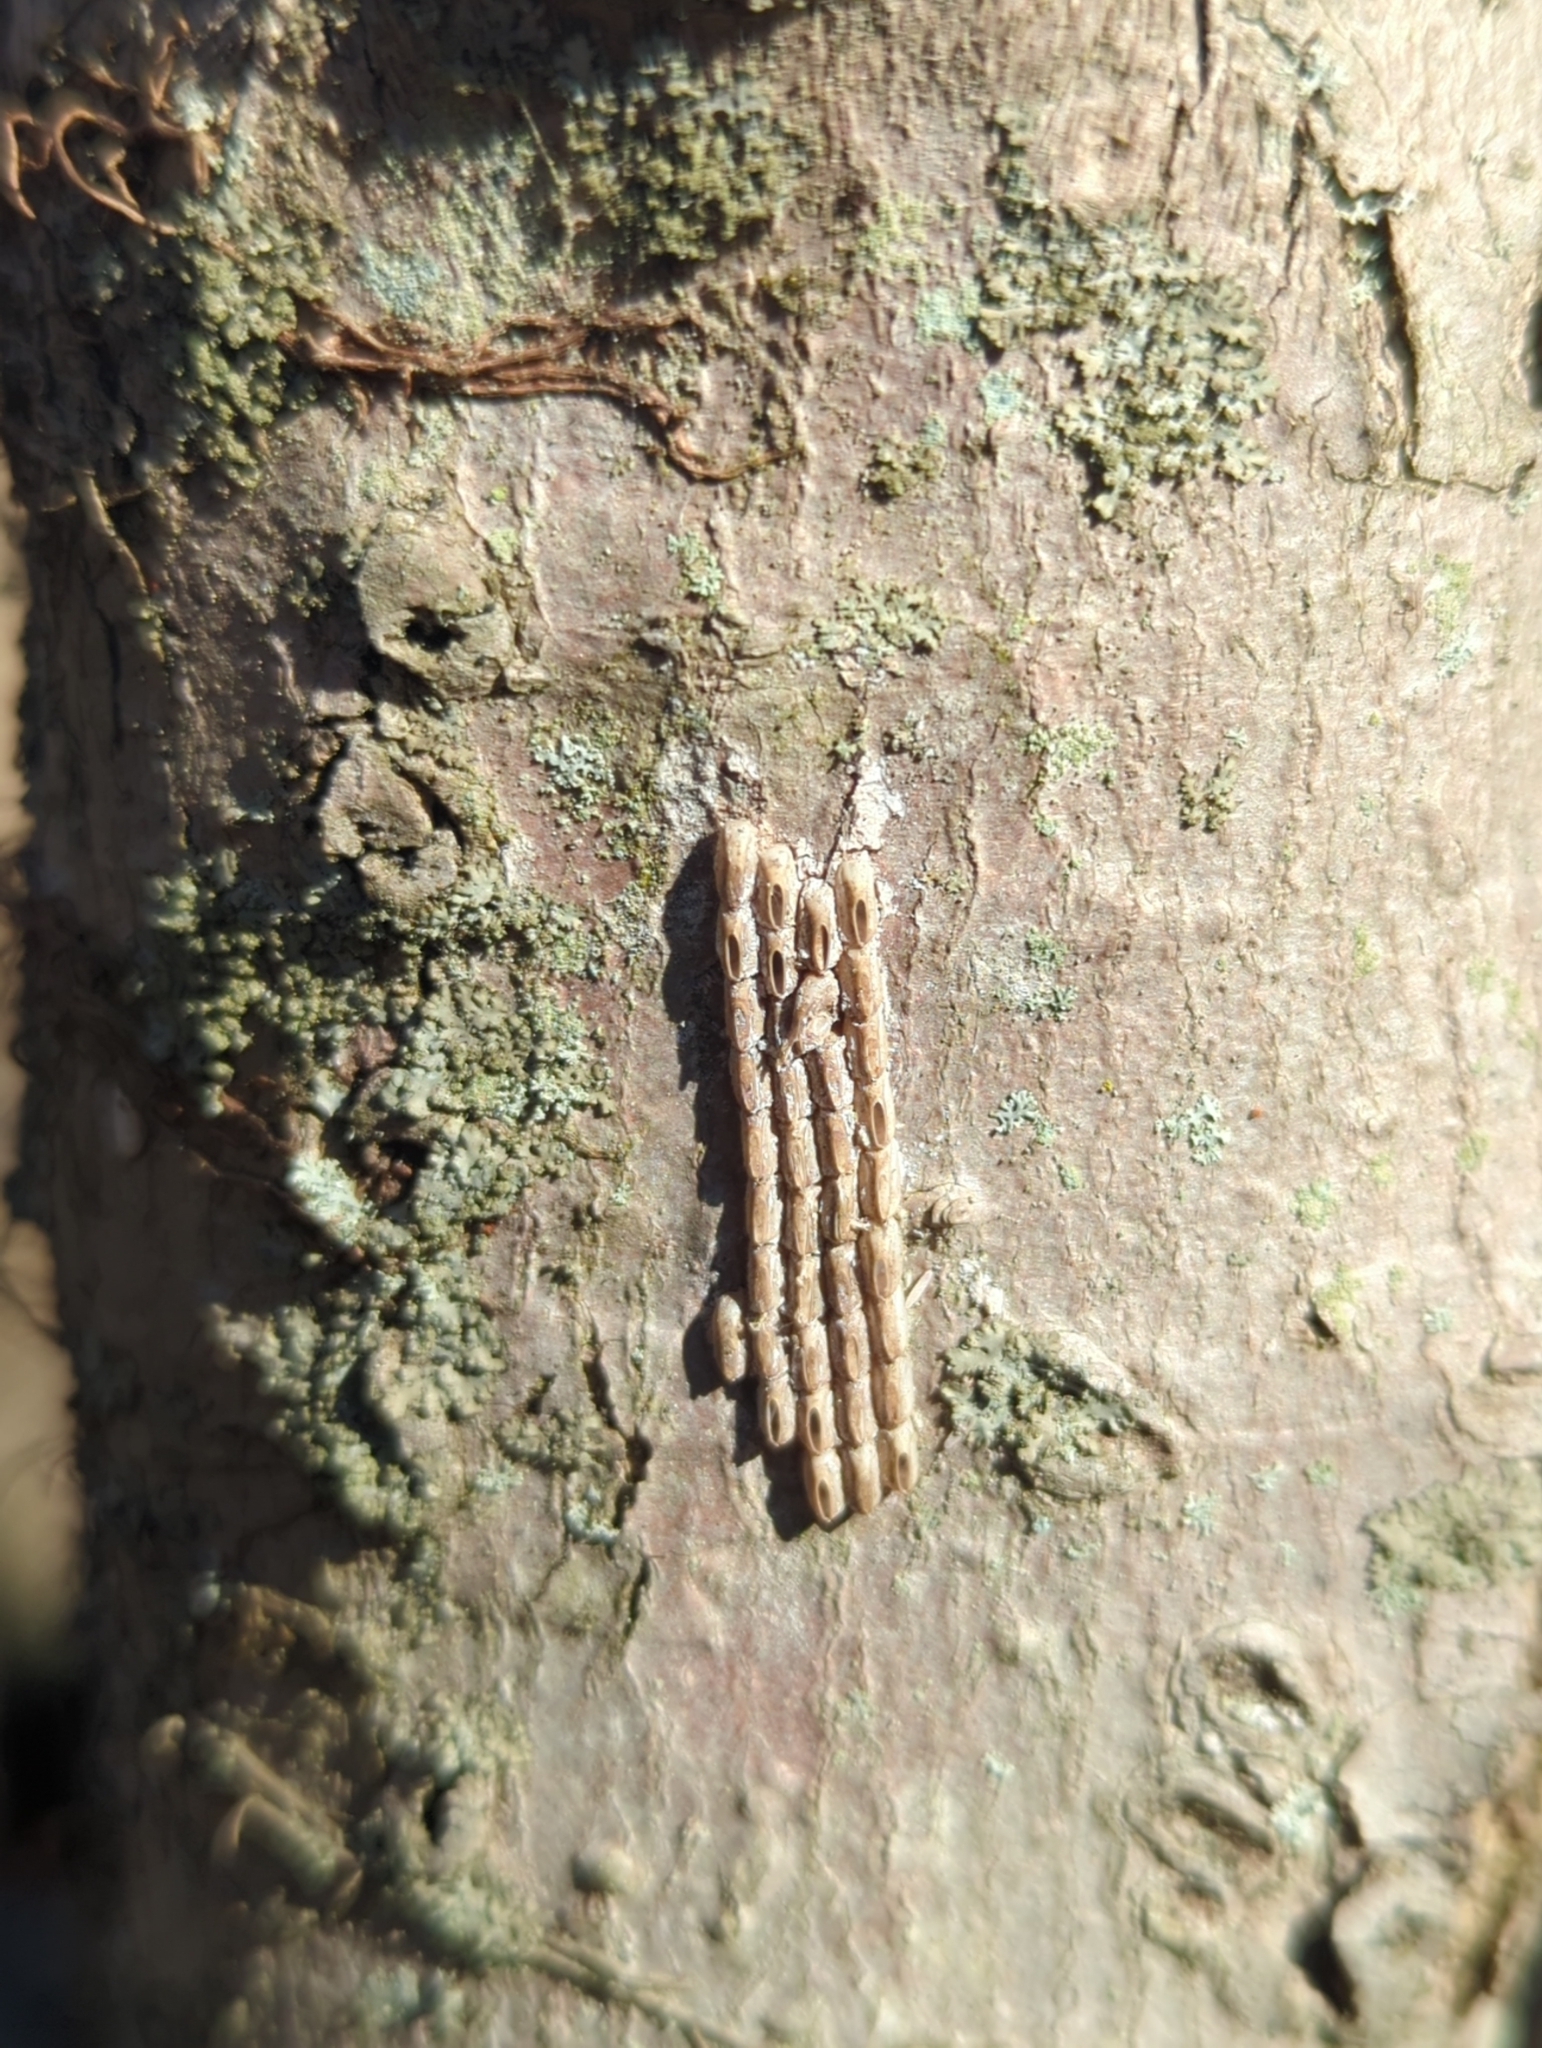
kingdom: Animalia
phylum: Arthropoda
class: Insecta
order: Hemiptera
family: Fulgoridae
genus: Lycorma
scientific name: Lycorma delicatula
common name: Spotted lanternfly
